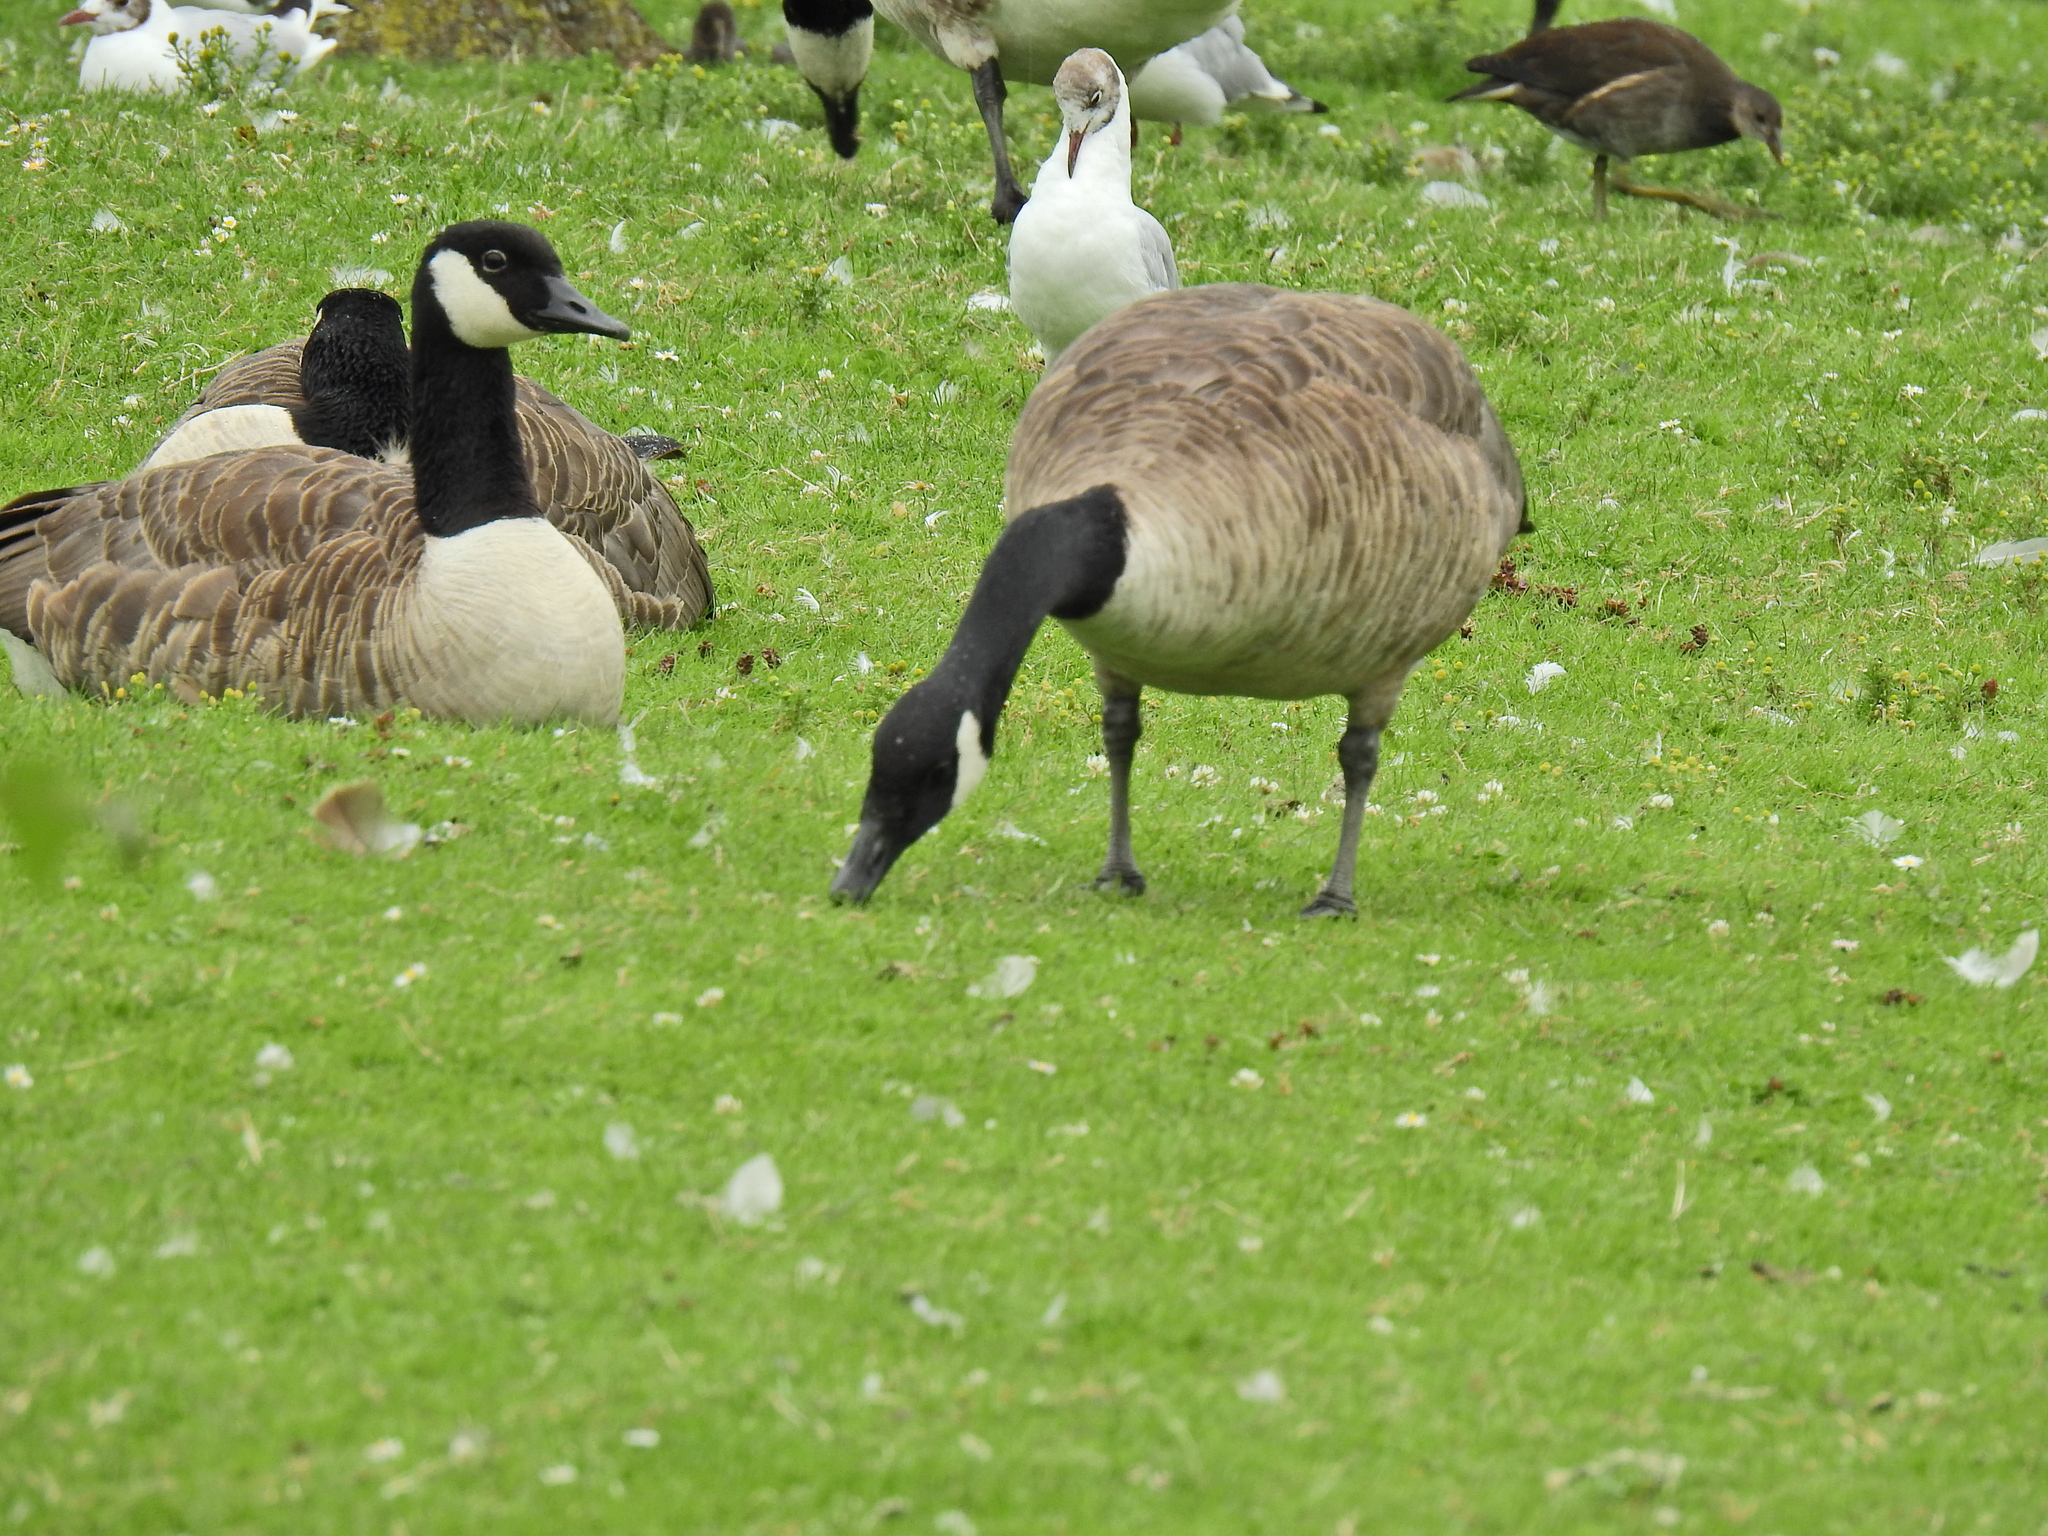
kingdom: Animalia
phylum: Chordata
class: Aves
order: Anseriformes
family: Anatidae
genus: Branta
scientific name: Branta canadensis
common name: Canada goose
